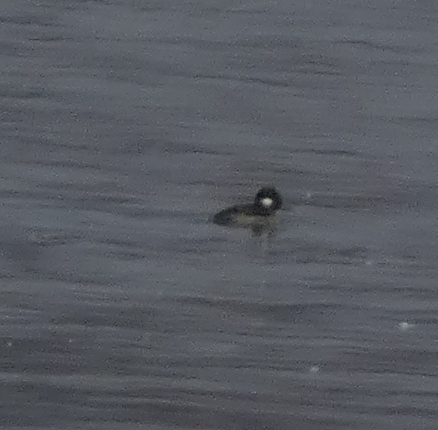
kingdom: Animalia
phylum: Chordata
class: Aves
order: Anseriformes
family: Anatidae
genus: Bucephala
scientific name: Bucephala albeola
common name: Bufflehead
